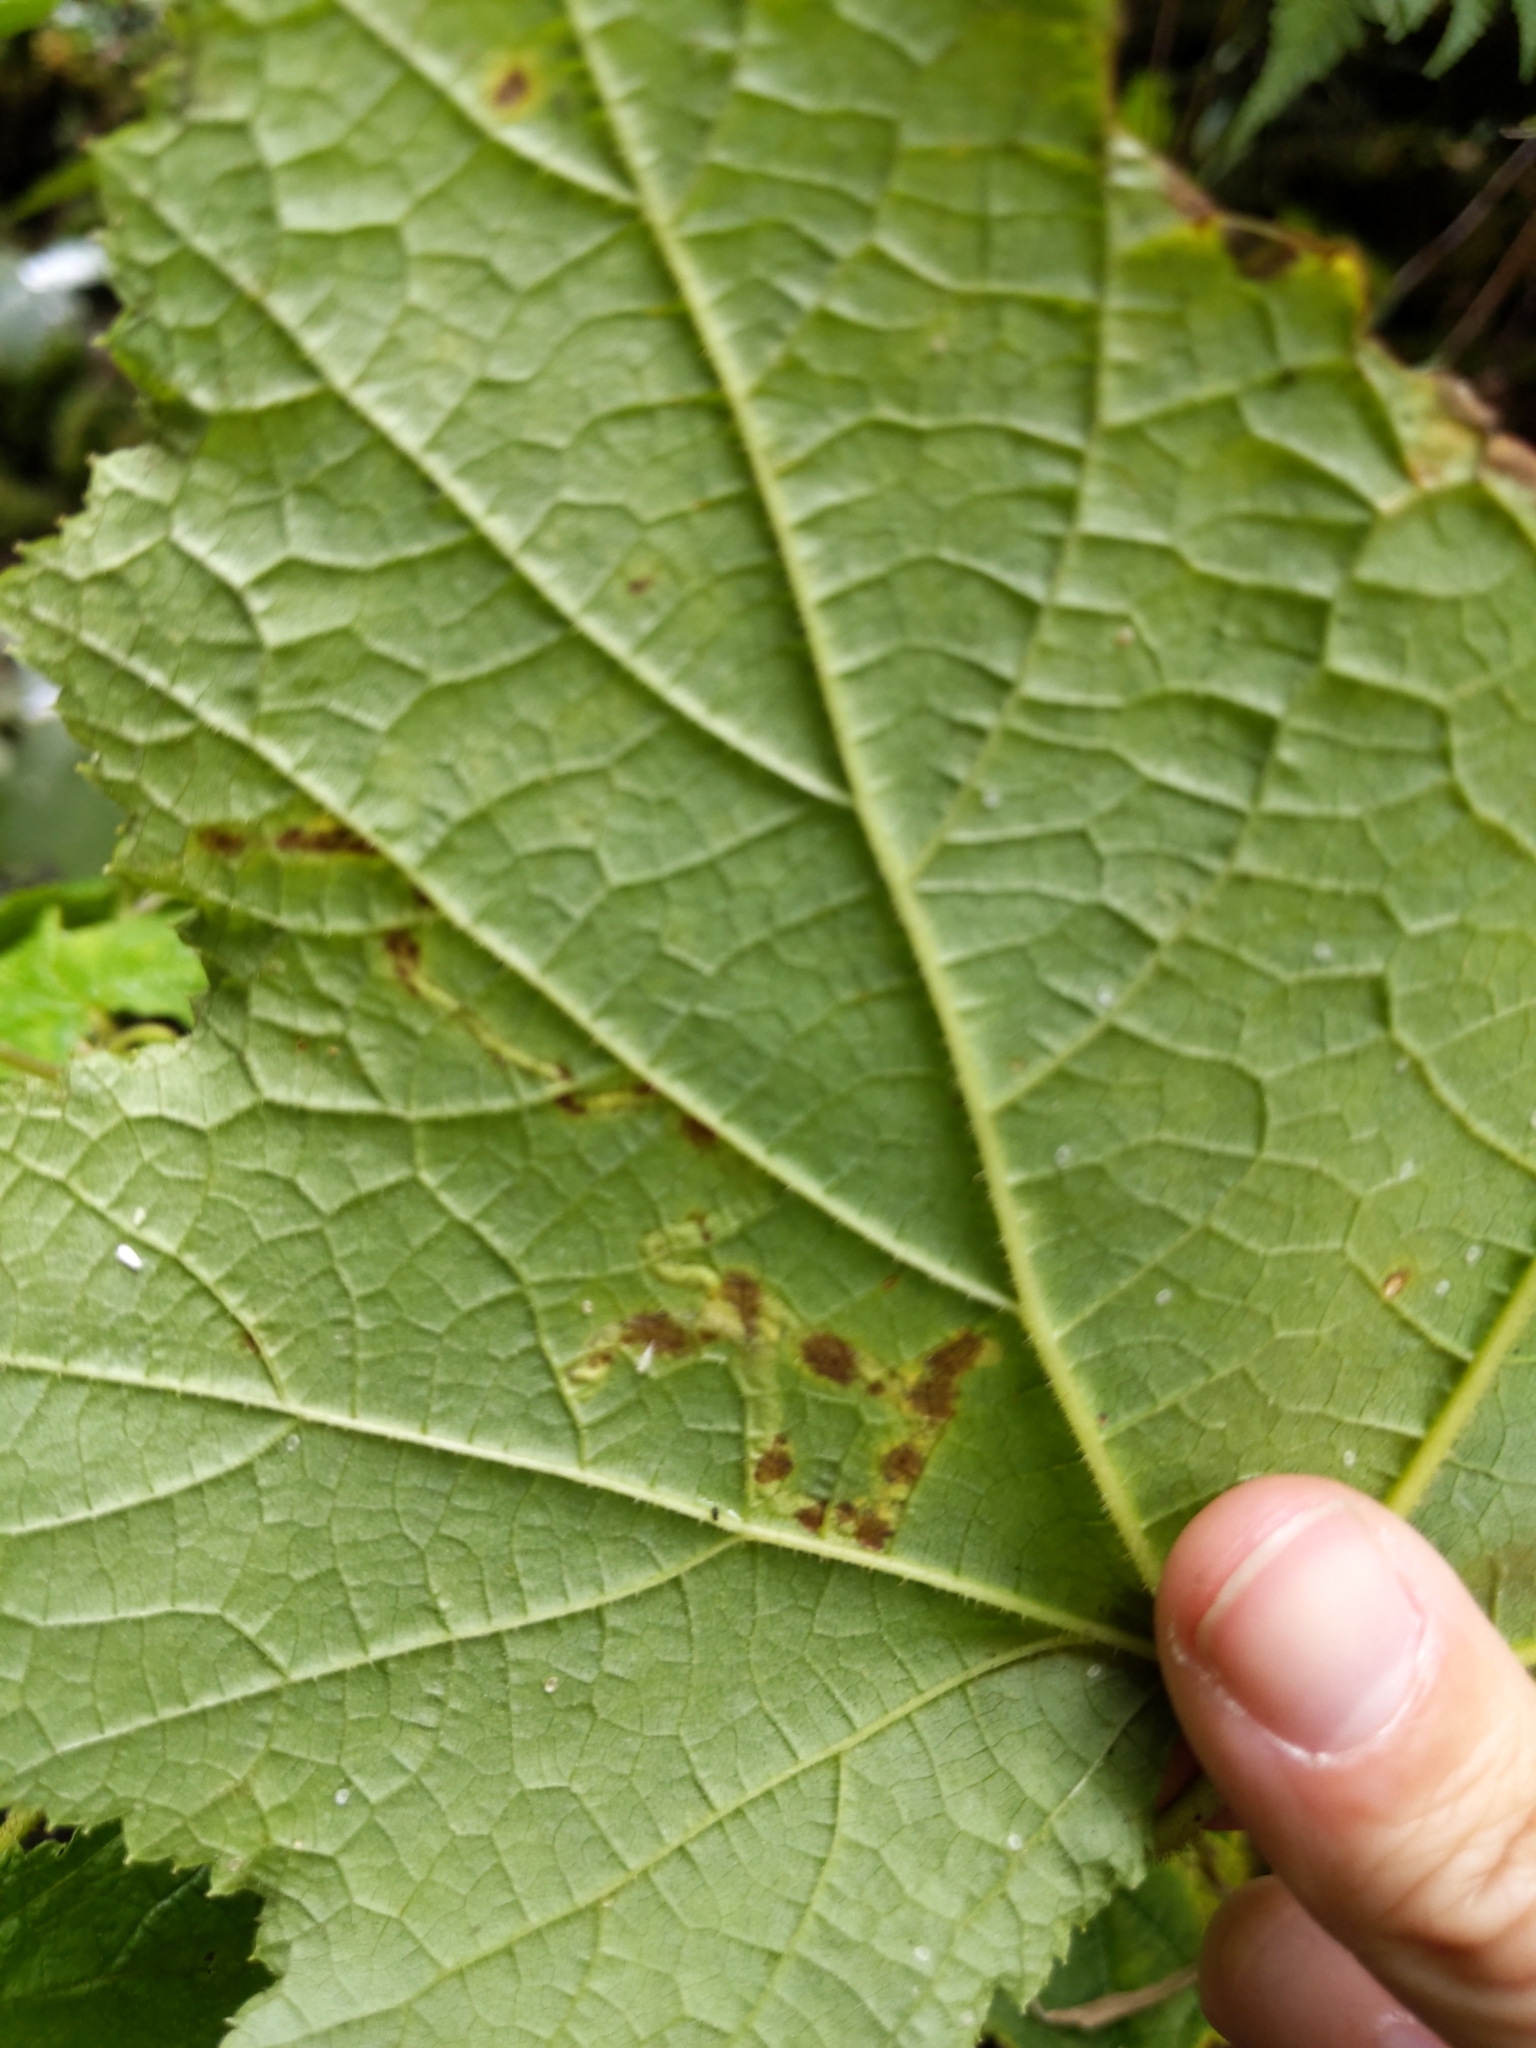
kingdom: Animalia
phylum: Arthropoda
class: Insecta
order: Diptera
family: Agromyzidae
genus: Agromyza
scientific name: Agromyza vockerothi
